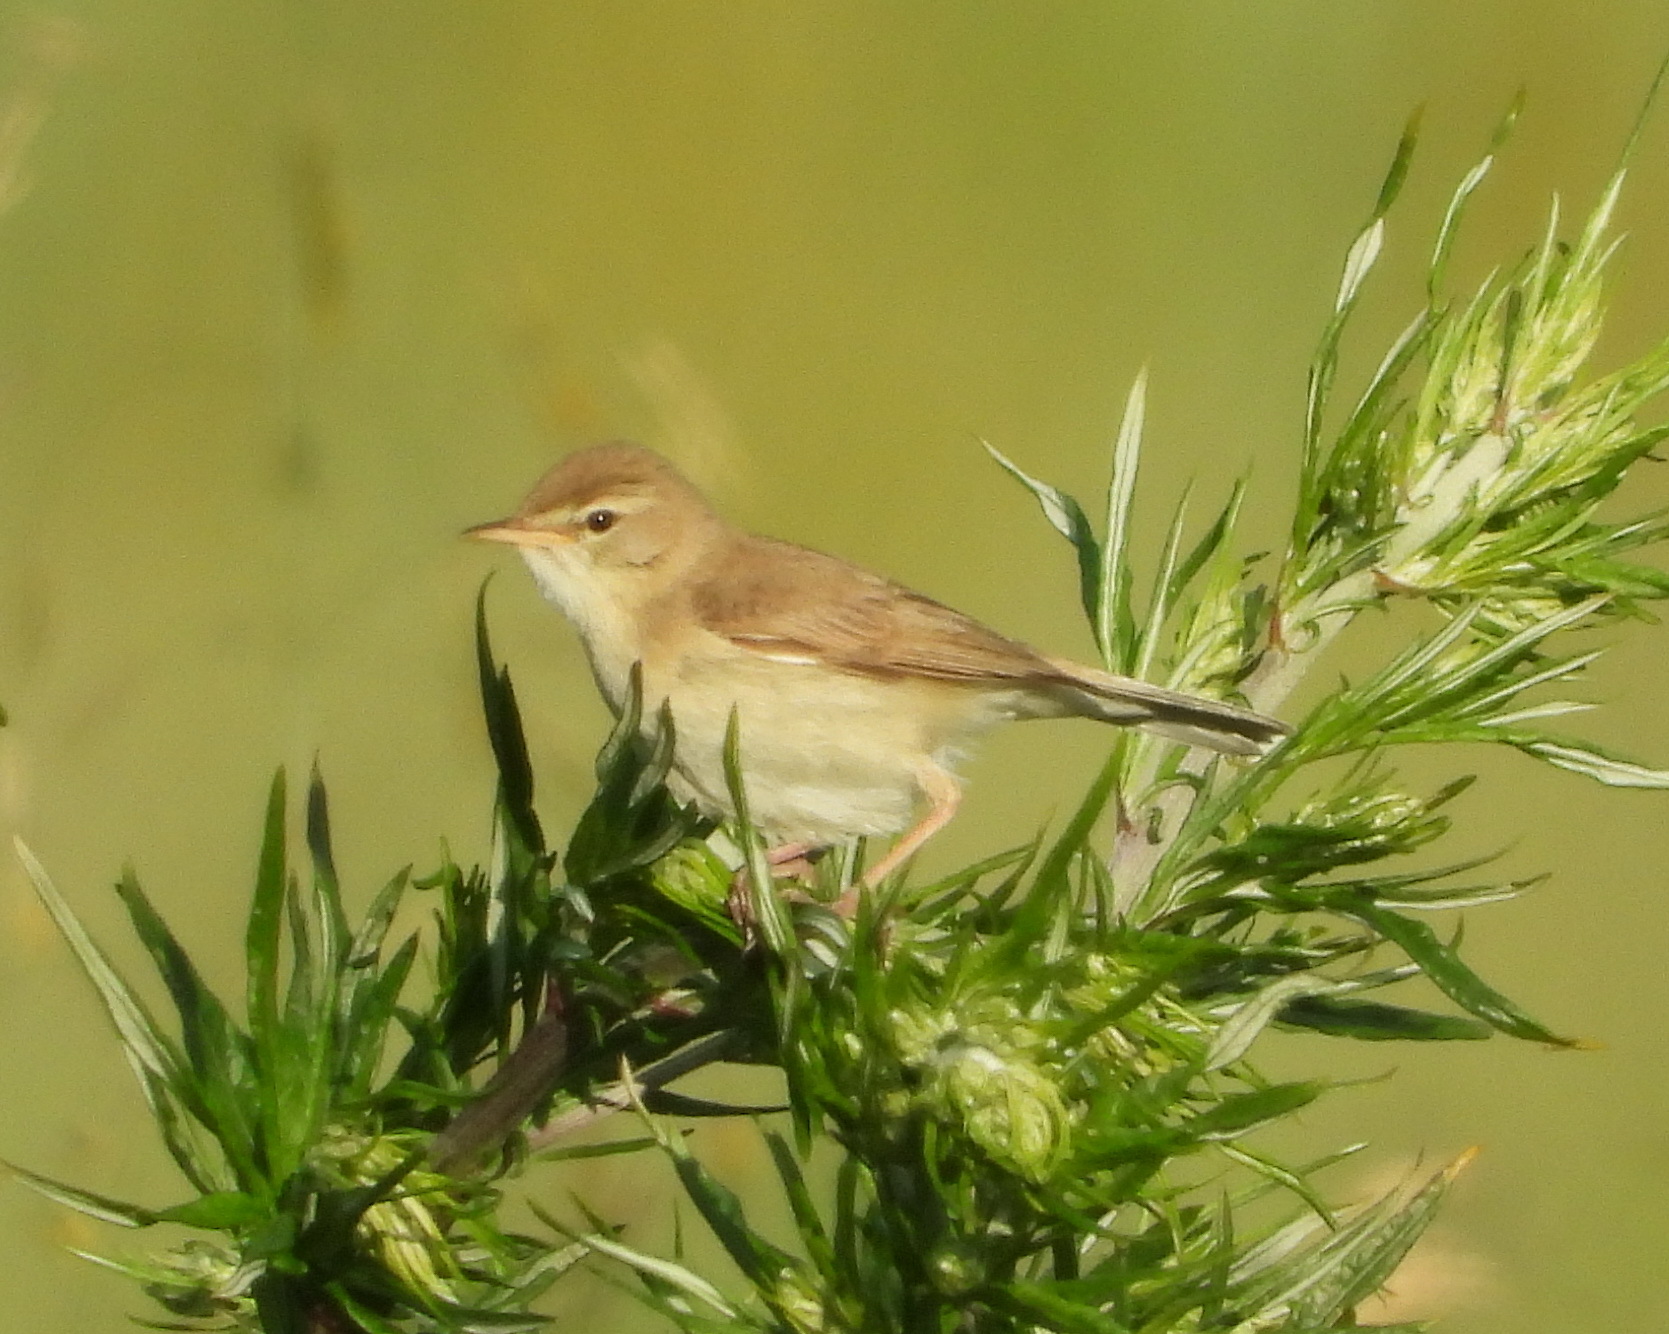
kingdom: Animalia
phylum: Chordata
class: Aves
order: Passeriformes
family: Acrocephalidae
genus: Iduna
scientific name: Iduna caligata
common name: Booted warbler
